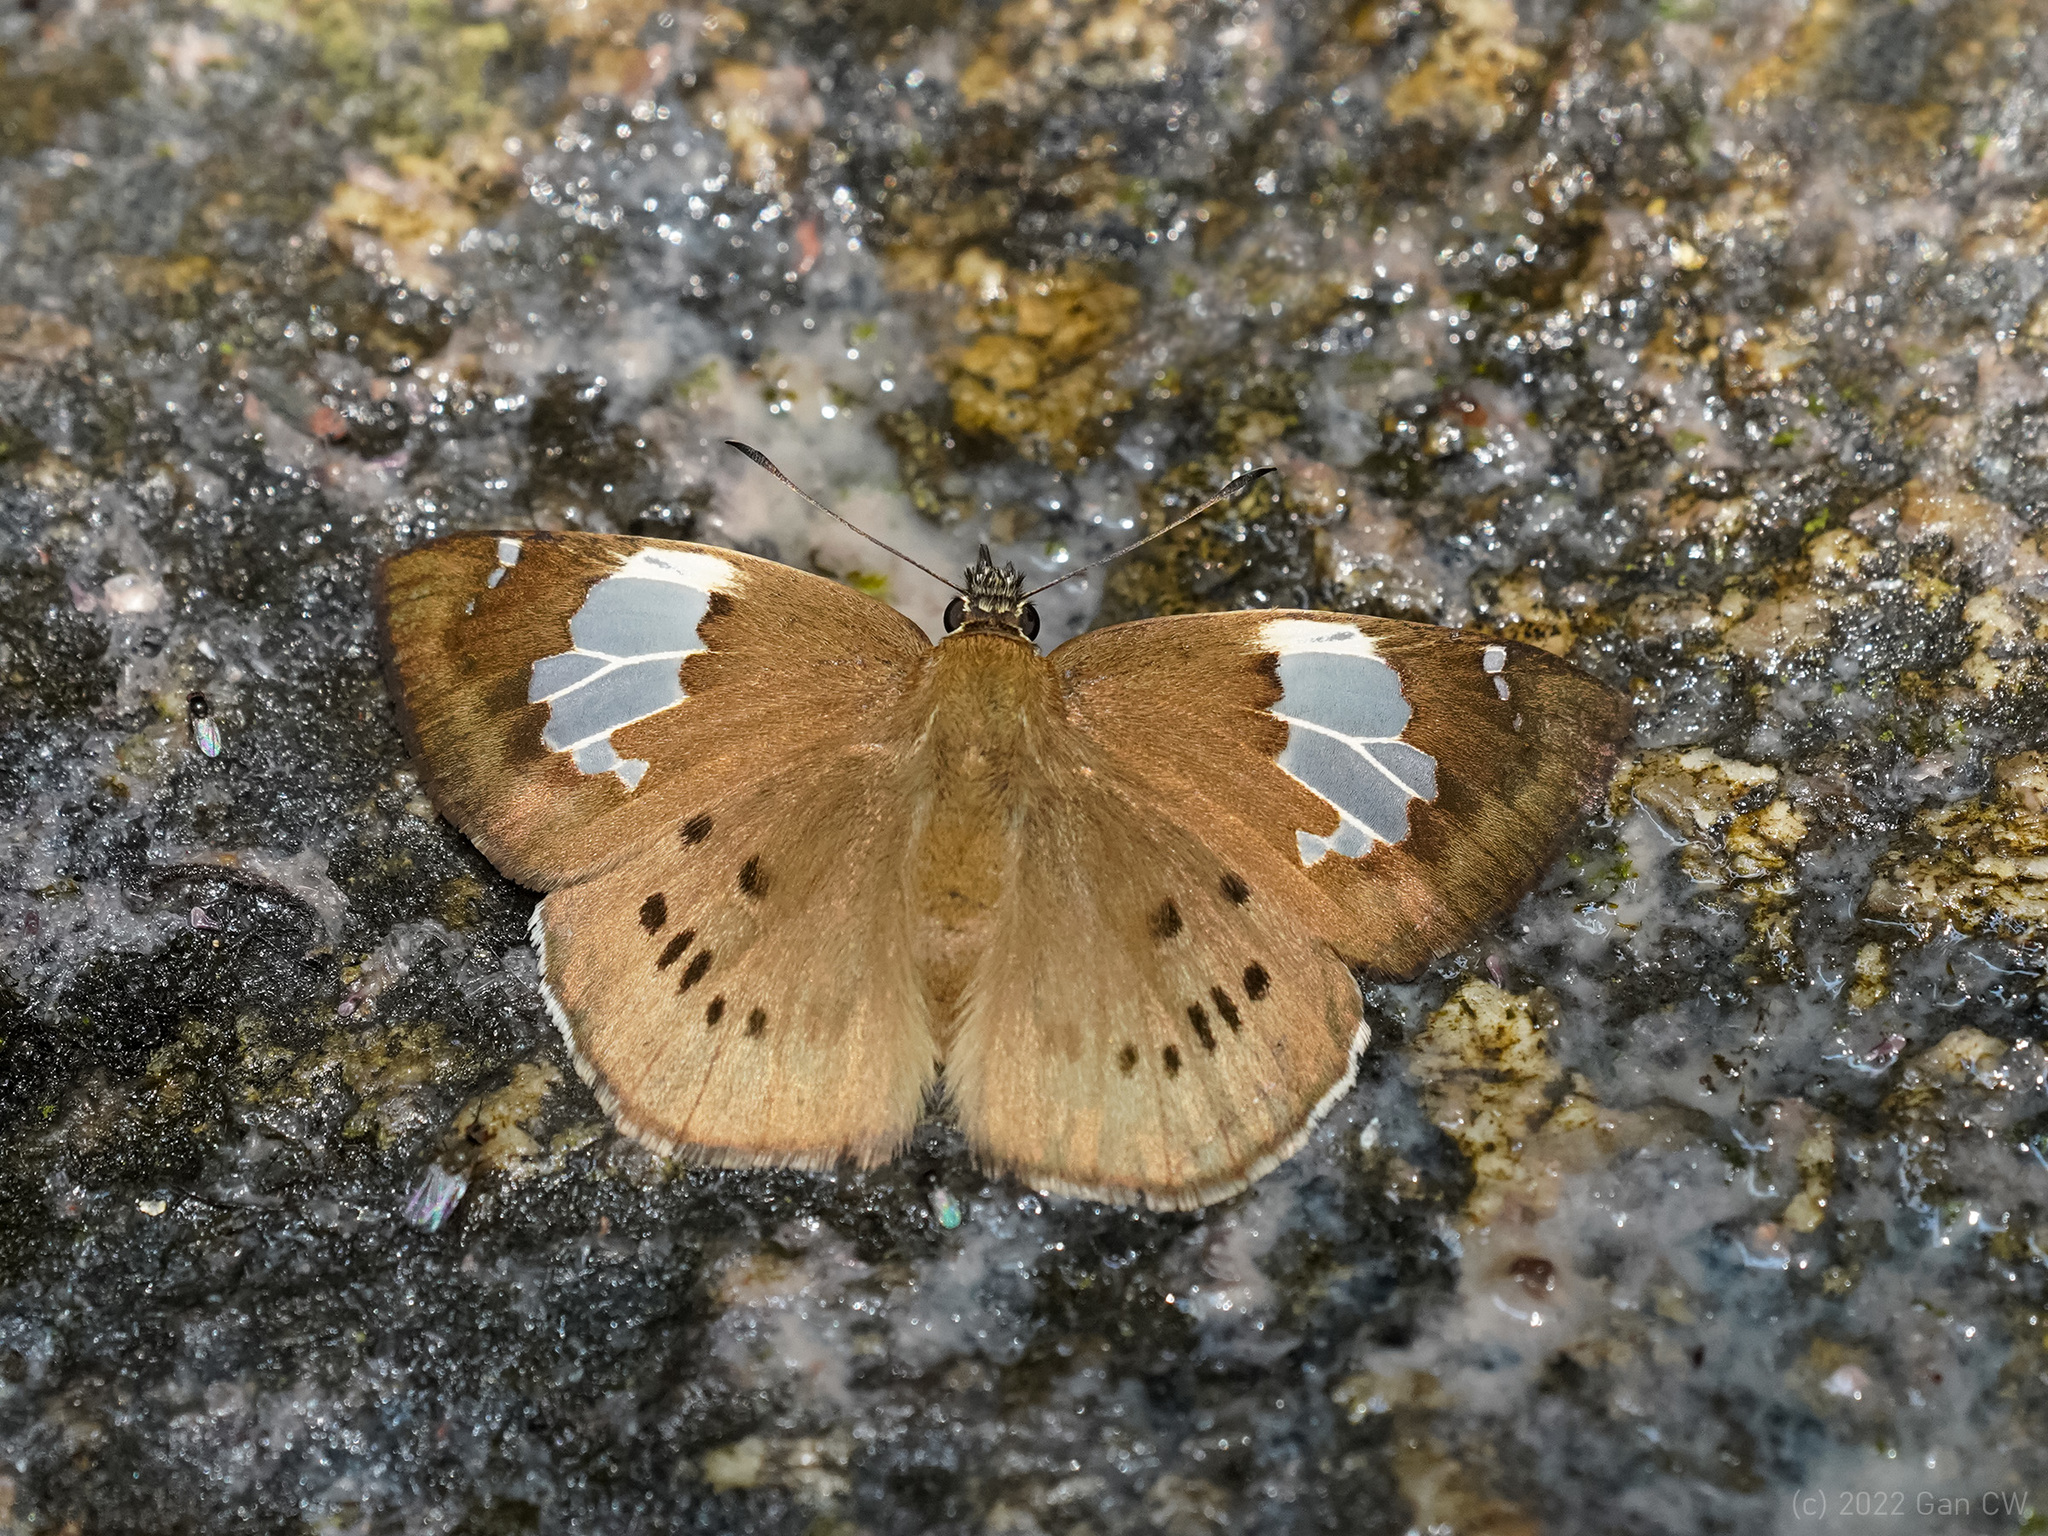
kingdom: Animalia
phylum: Arthropoda
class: Insecta
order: Lepidoptera
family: Hesperiidae
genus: Coladenia
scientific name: Coladenia buchananii
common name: Great pied flat
